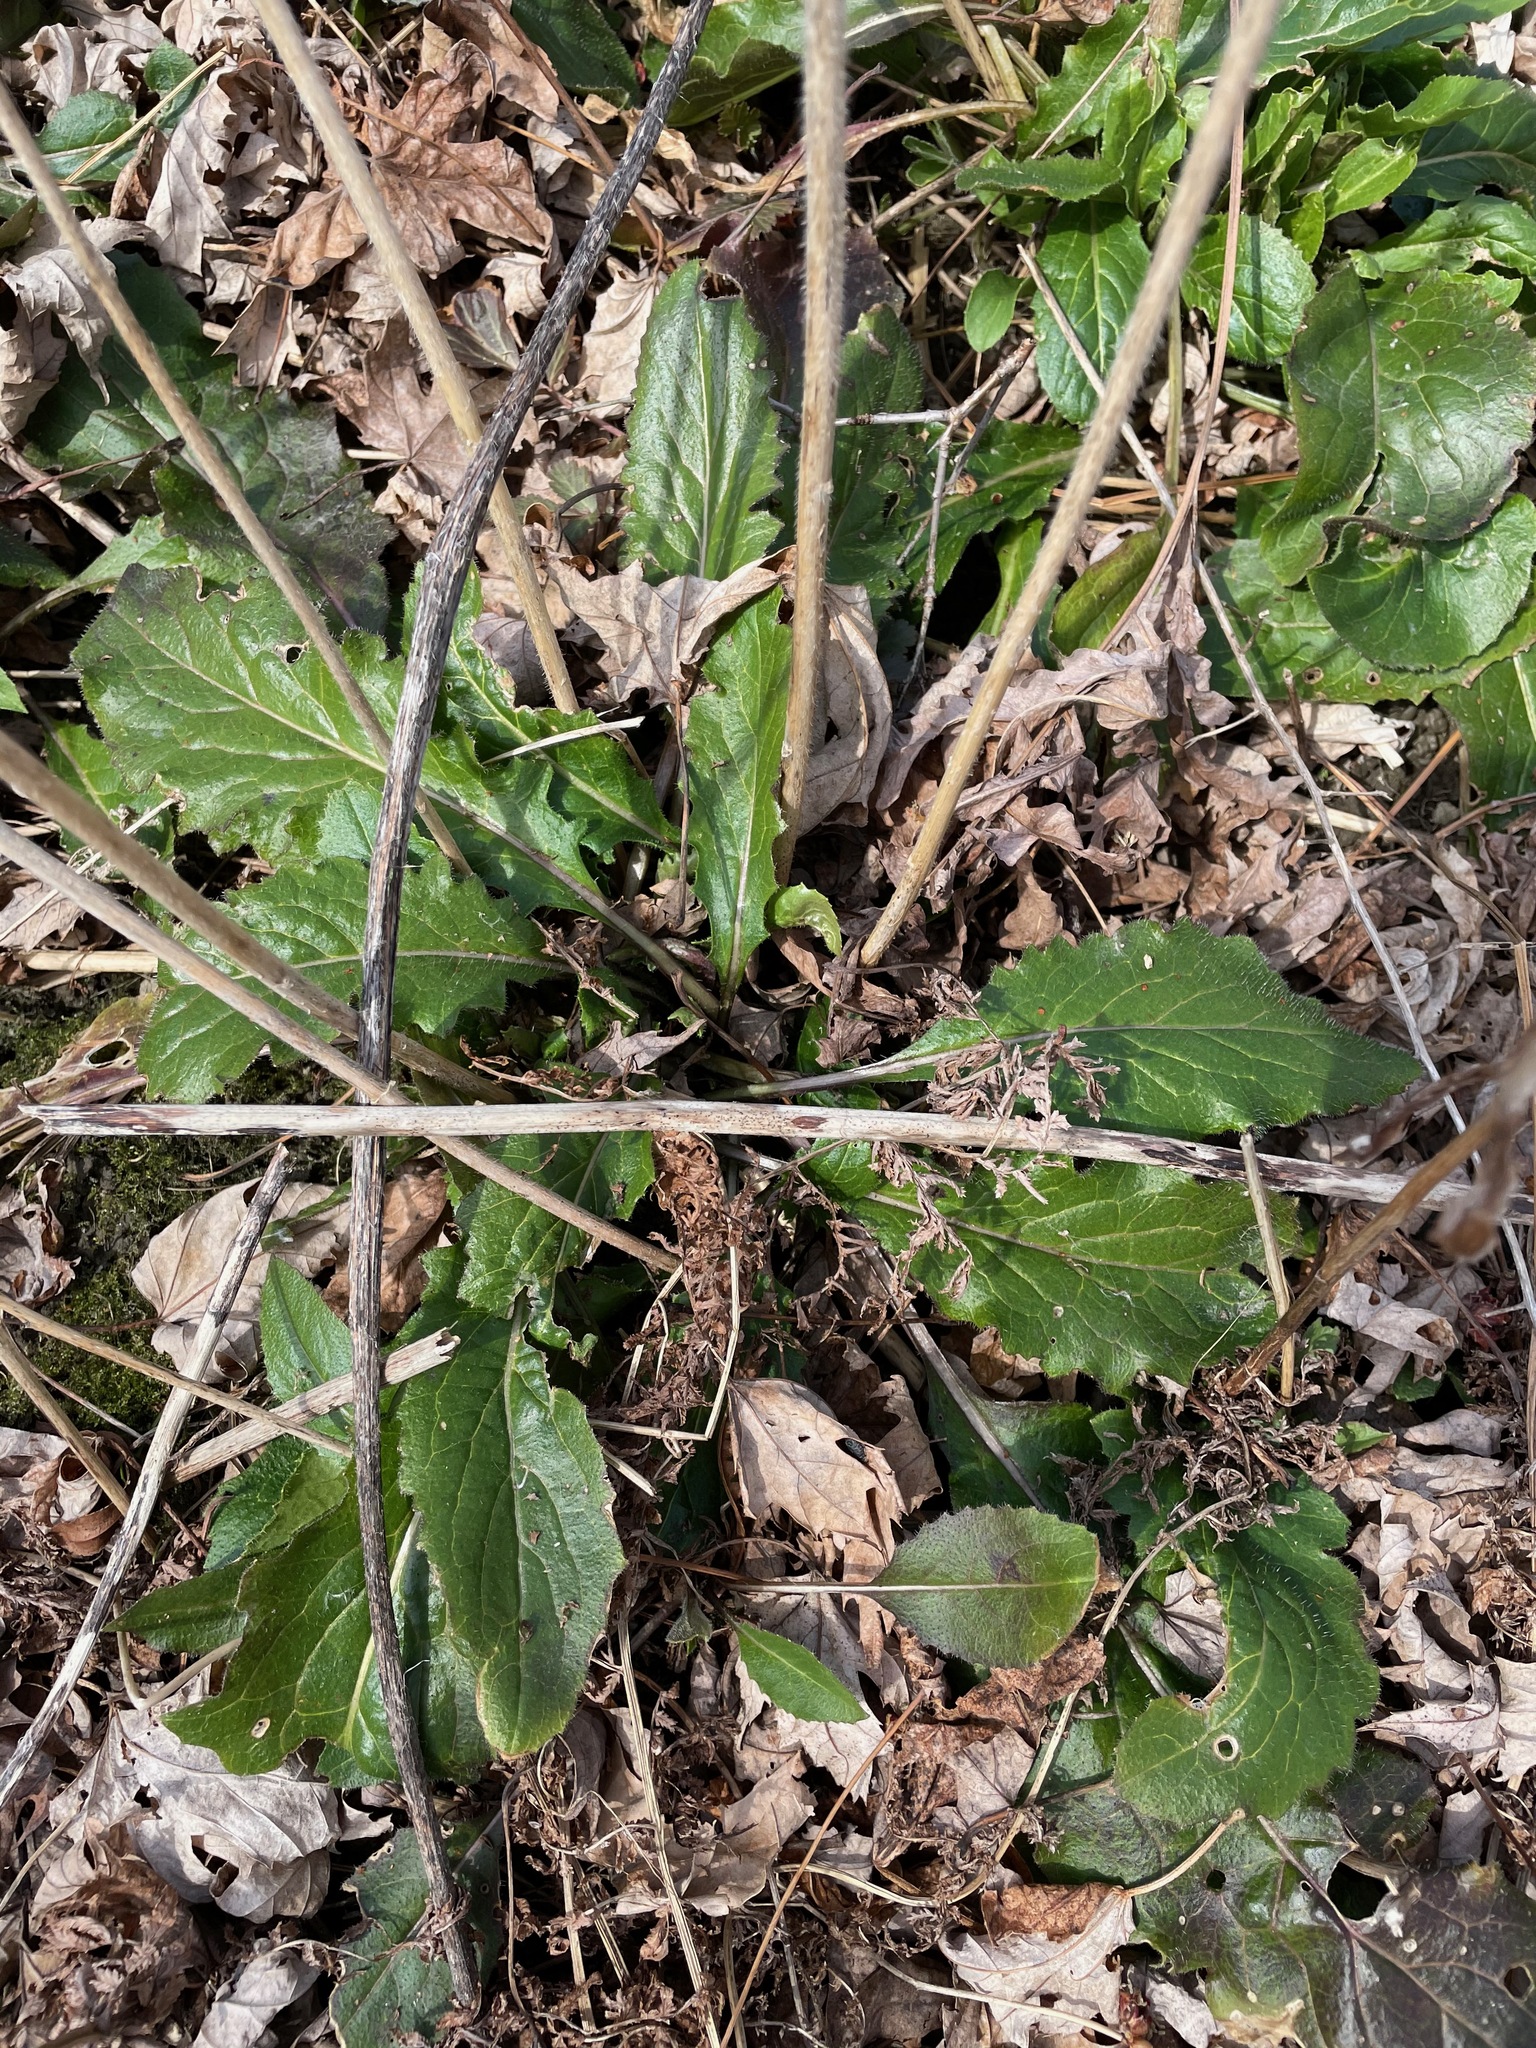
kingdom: Plantae
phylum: Tracheophyta
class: Magnoliopsida
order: Brassicales
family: Brassicaceae
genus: Hesperis
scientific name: Hesperis matronalis
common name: Dame's-violet
